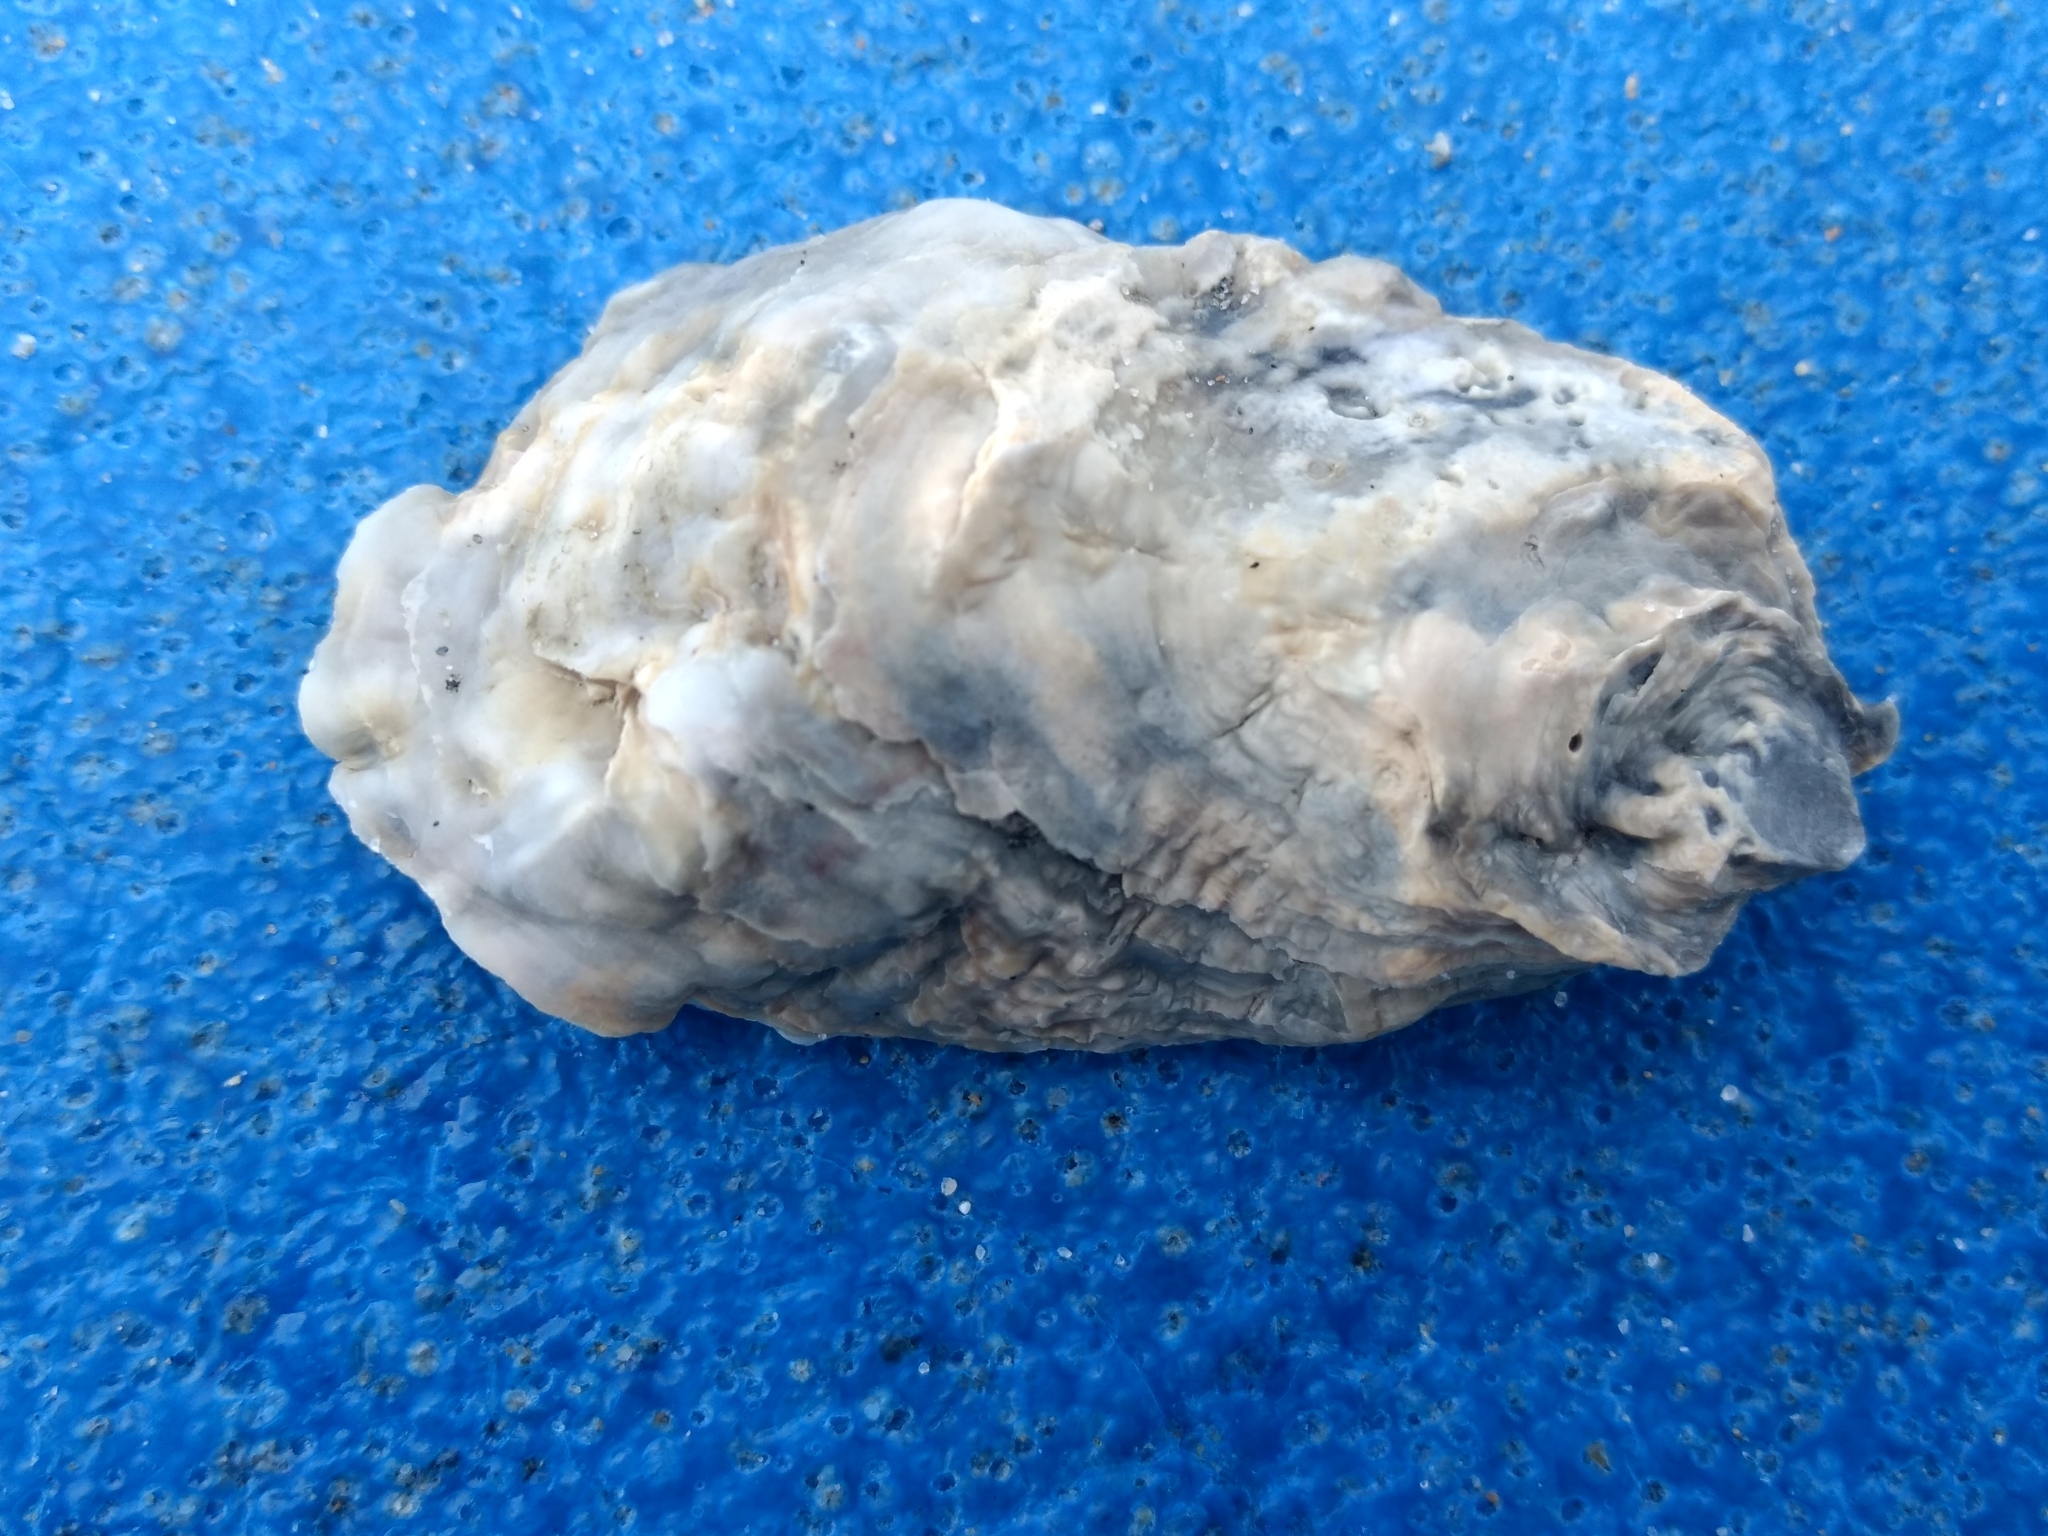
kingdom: Animalia
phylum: Mollusca
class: Bivalvia
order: Ostreida
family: Ostreidae
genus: Ostrea
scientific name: Ostrea lurida
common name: Olympia flat oyster
